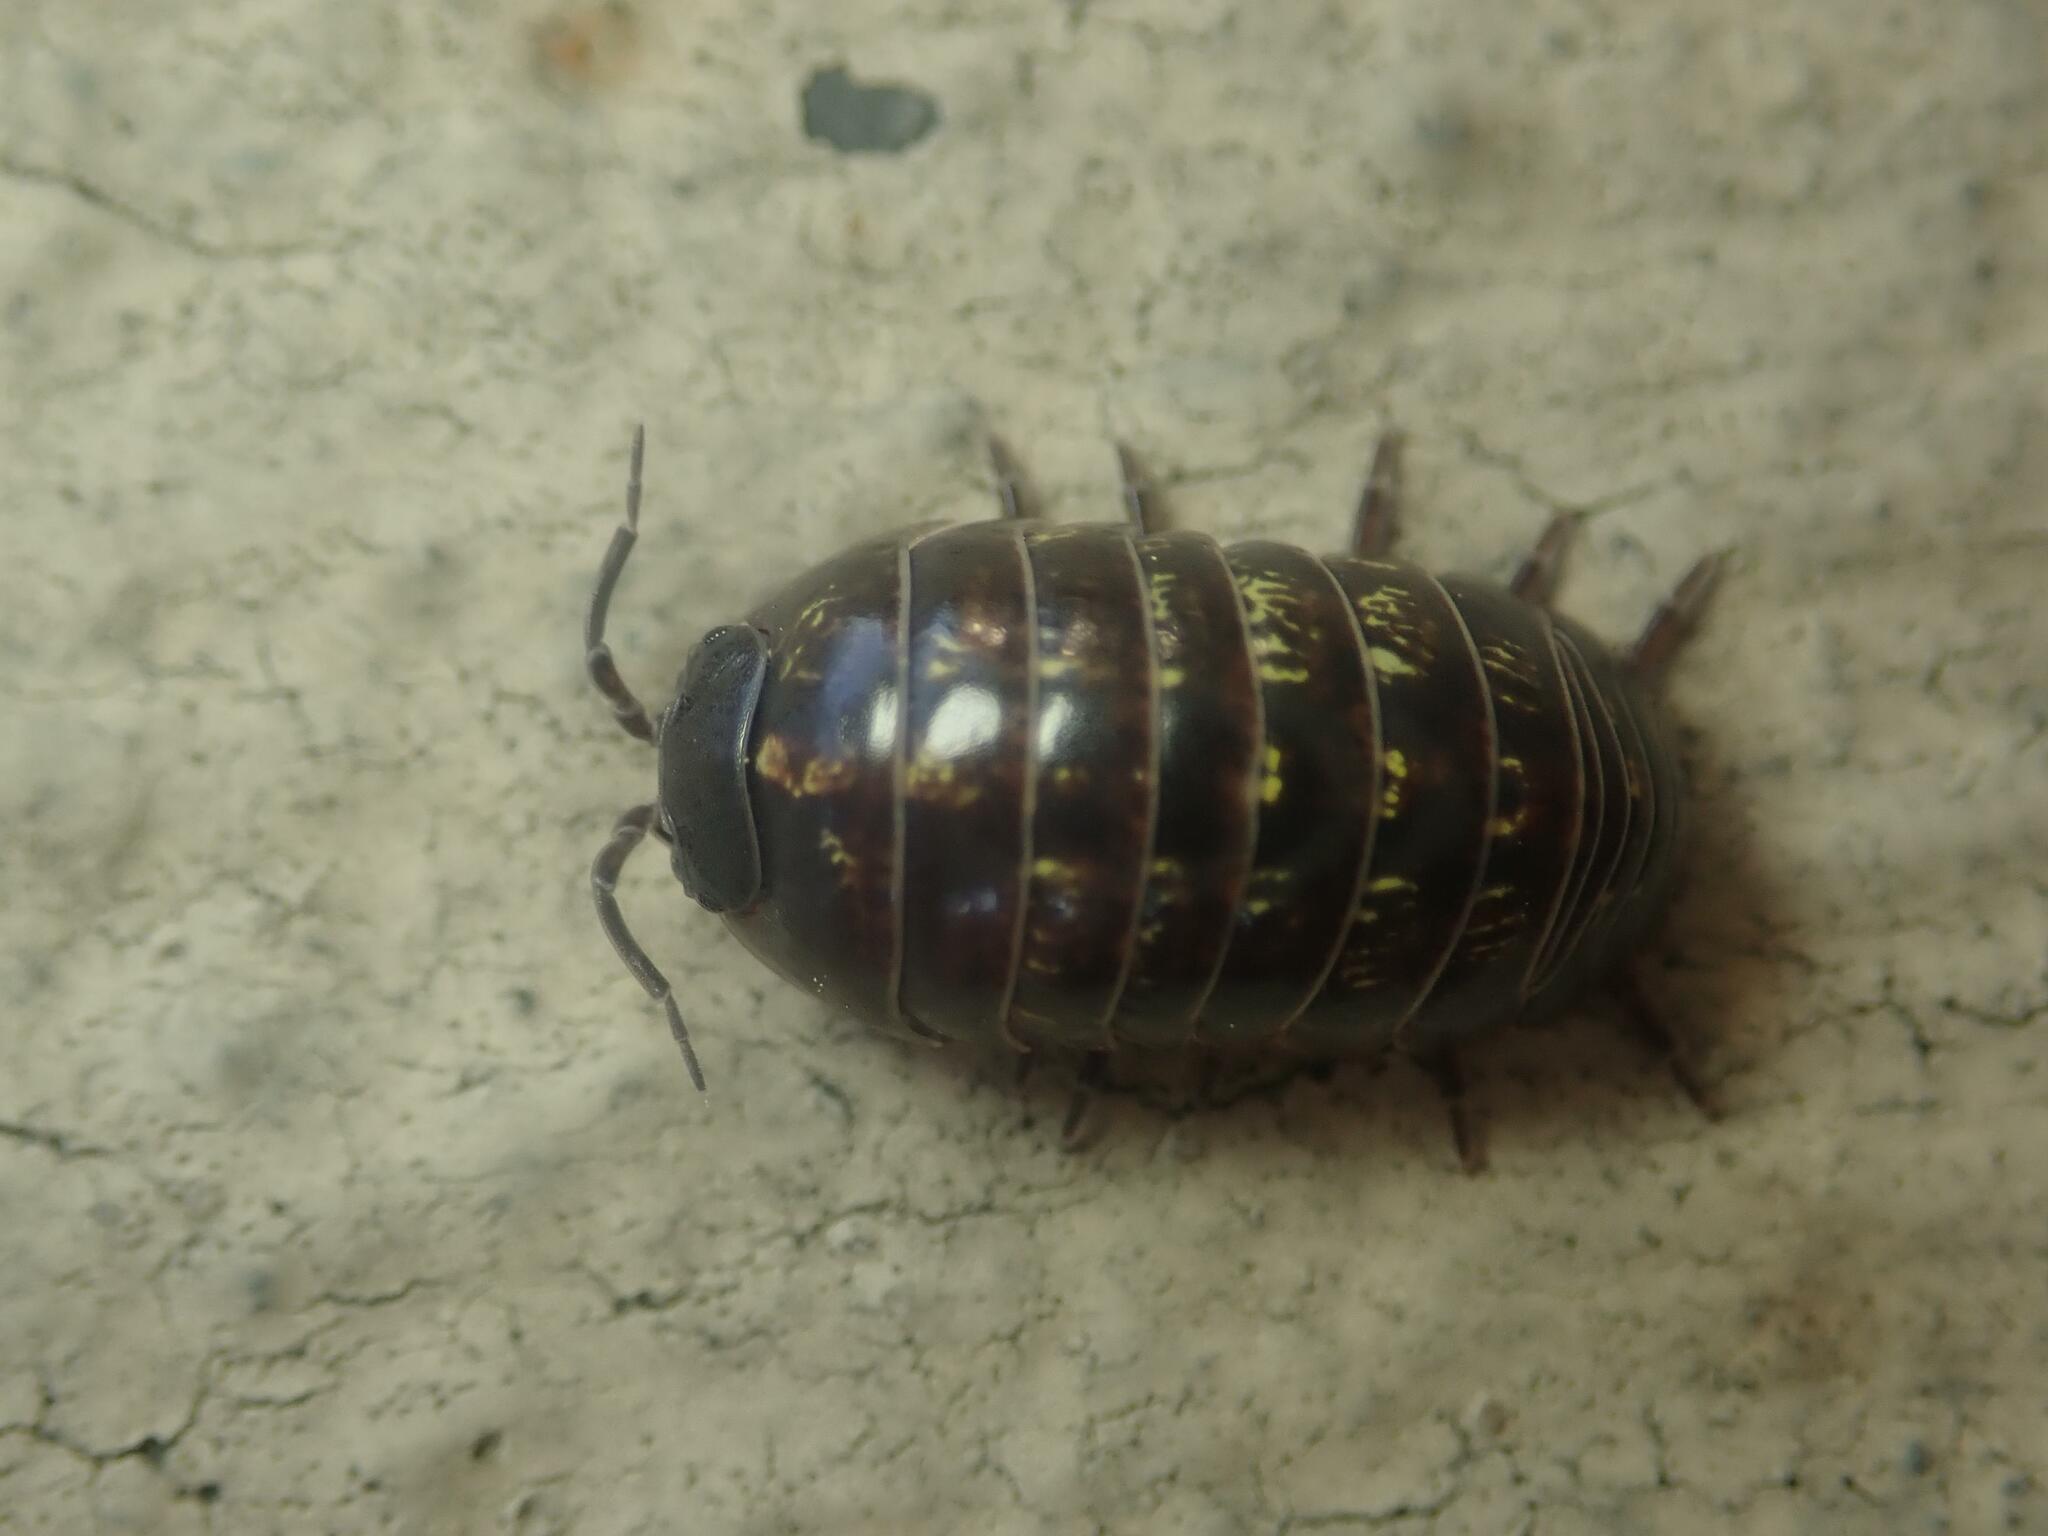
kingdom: Animalia
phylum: Arthropoda
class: Malacostraca
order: Isopoda
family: Armadillidiidae
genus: Armadillidium
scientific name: Armadillidium vulgare
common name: Common pill woodlouse
